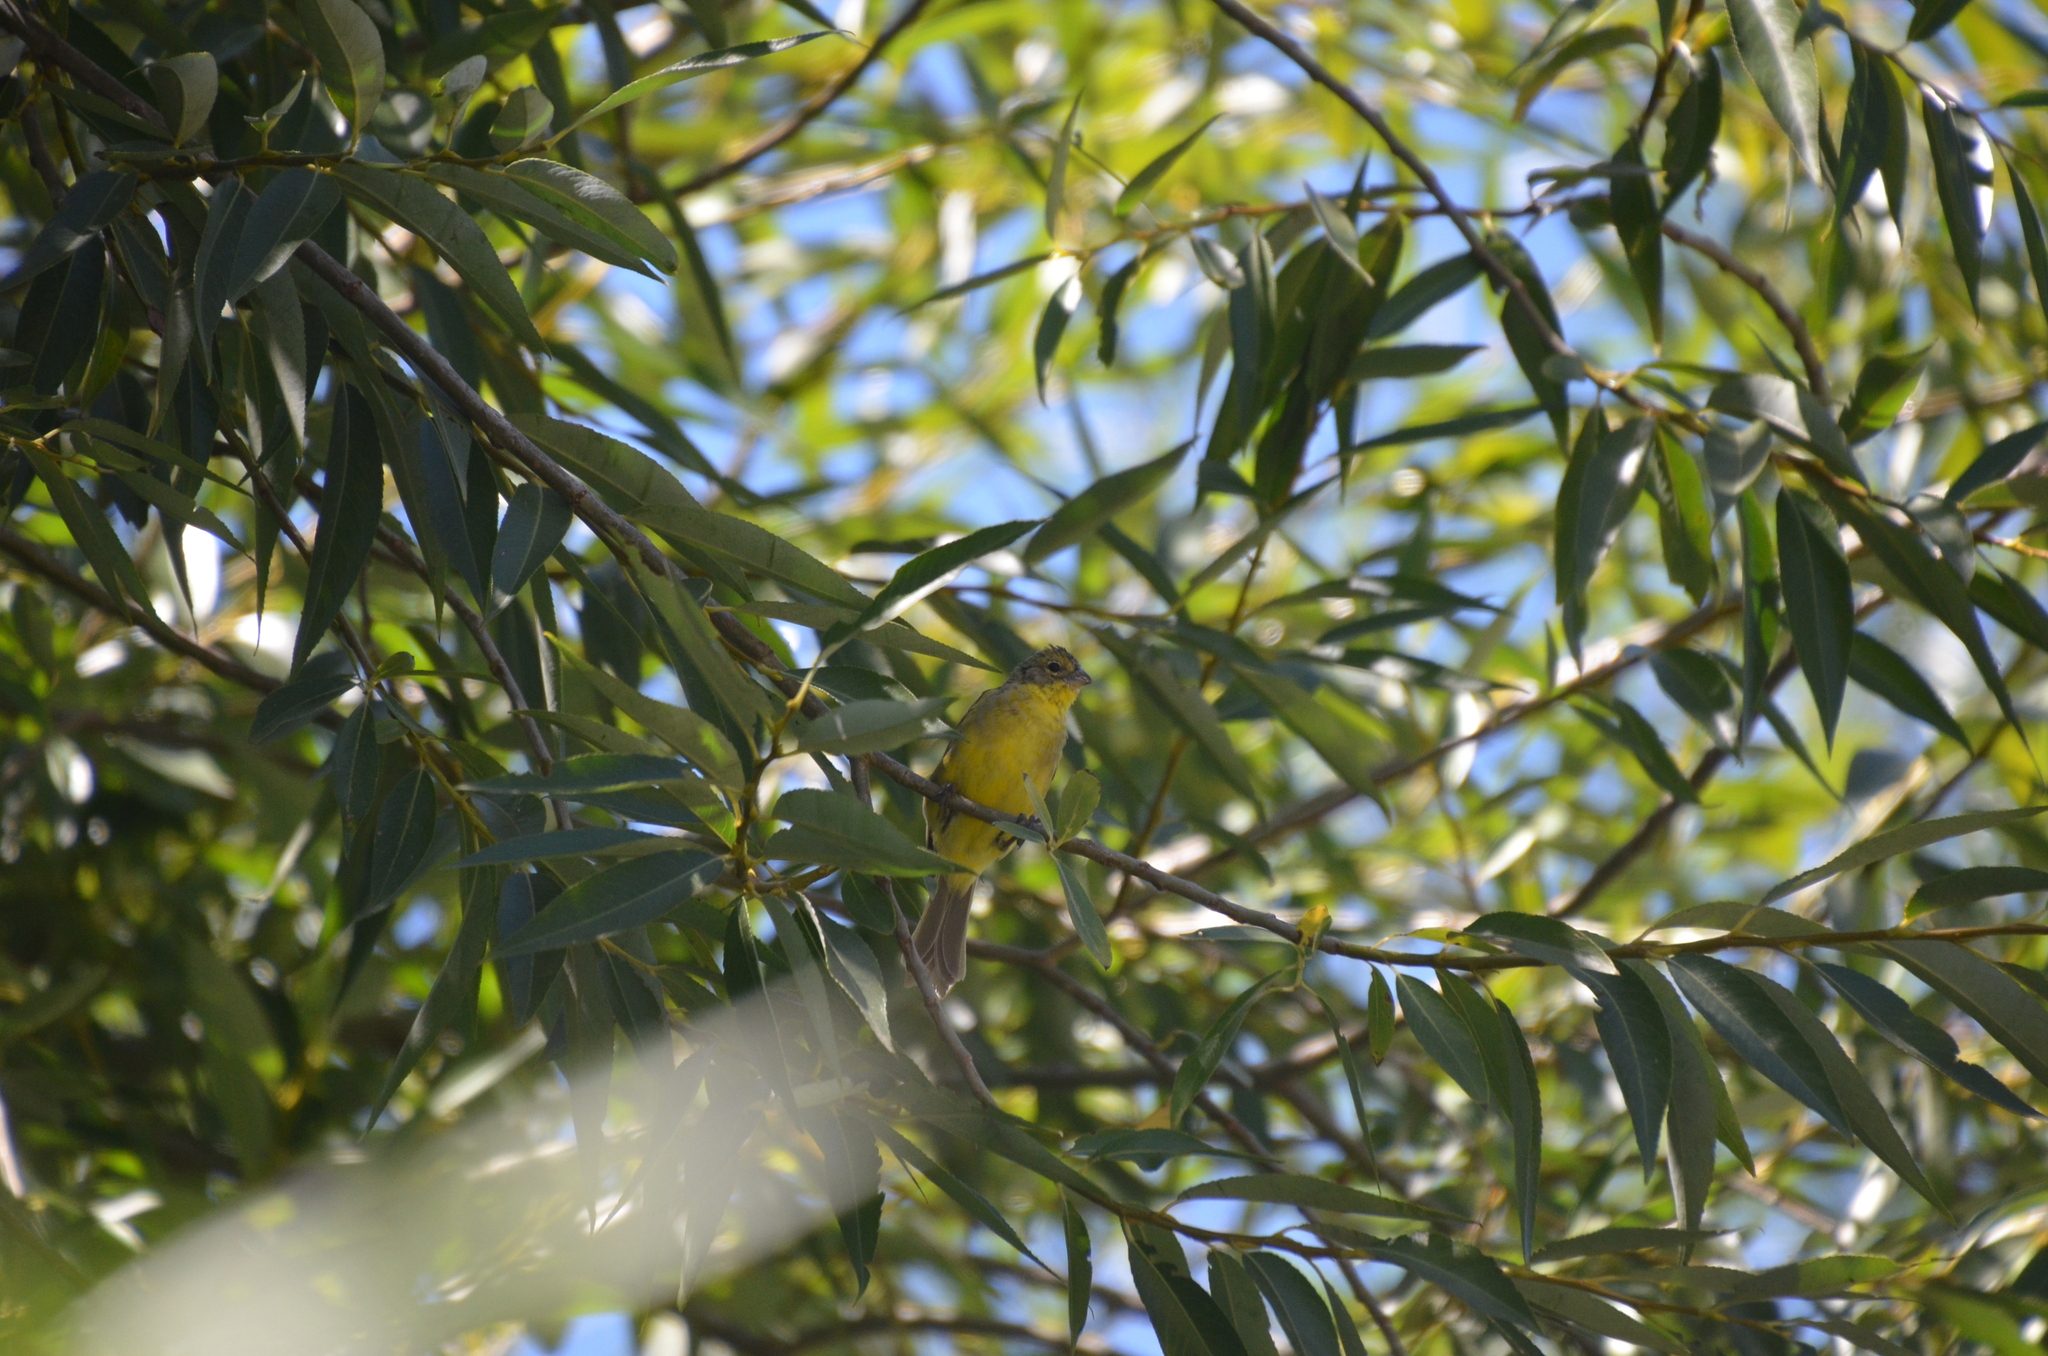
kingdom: Animalia
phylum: Chordata
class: Aves
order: Passeriformes
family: Thraupidae
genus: Sicalis
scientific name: Sicalis luteola
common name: Grassland yellow-finch
